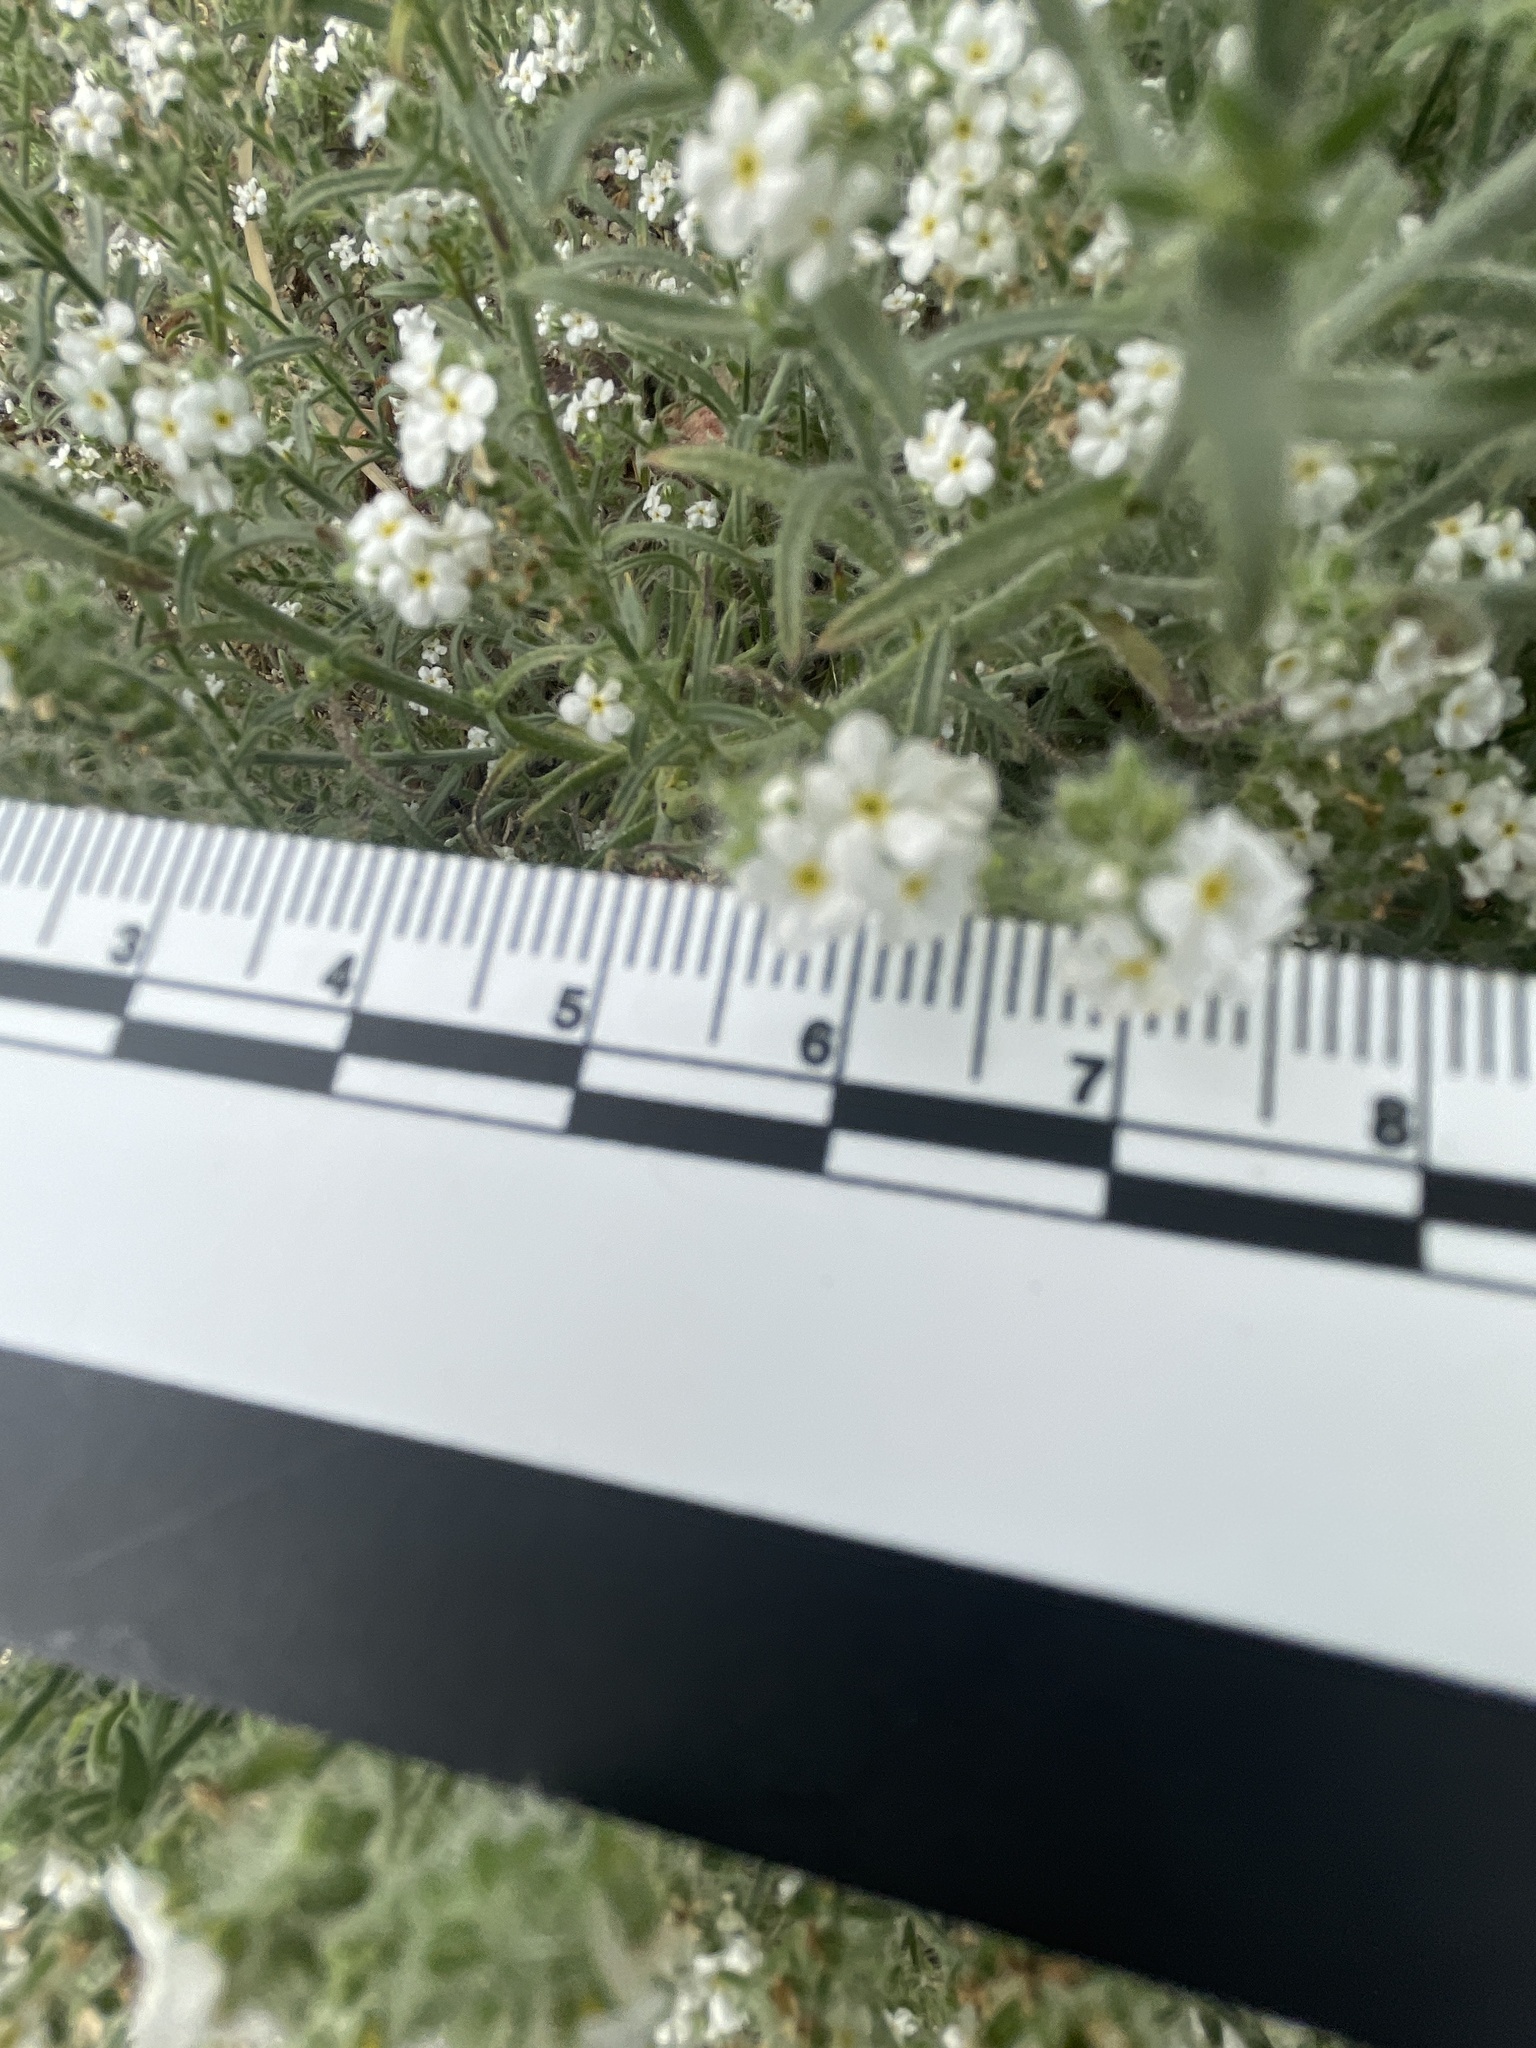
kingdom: Plantae
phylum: Tracheophyta
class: Magnoliopsida
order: Boraginales
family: Boraginaceae
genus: Johnstonella
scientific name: Johnstonella angustifolia
